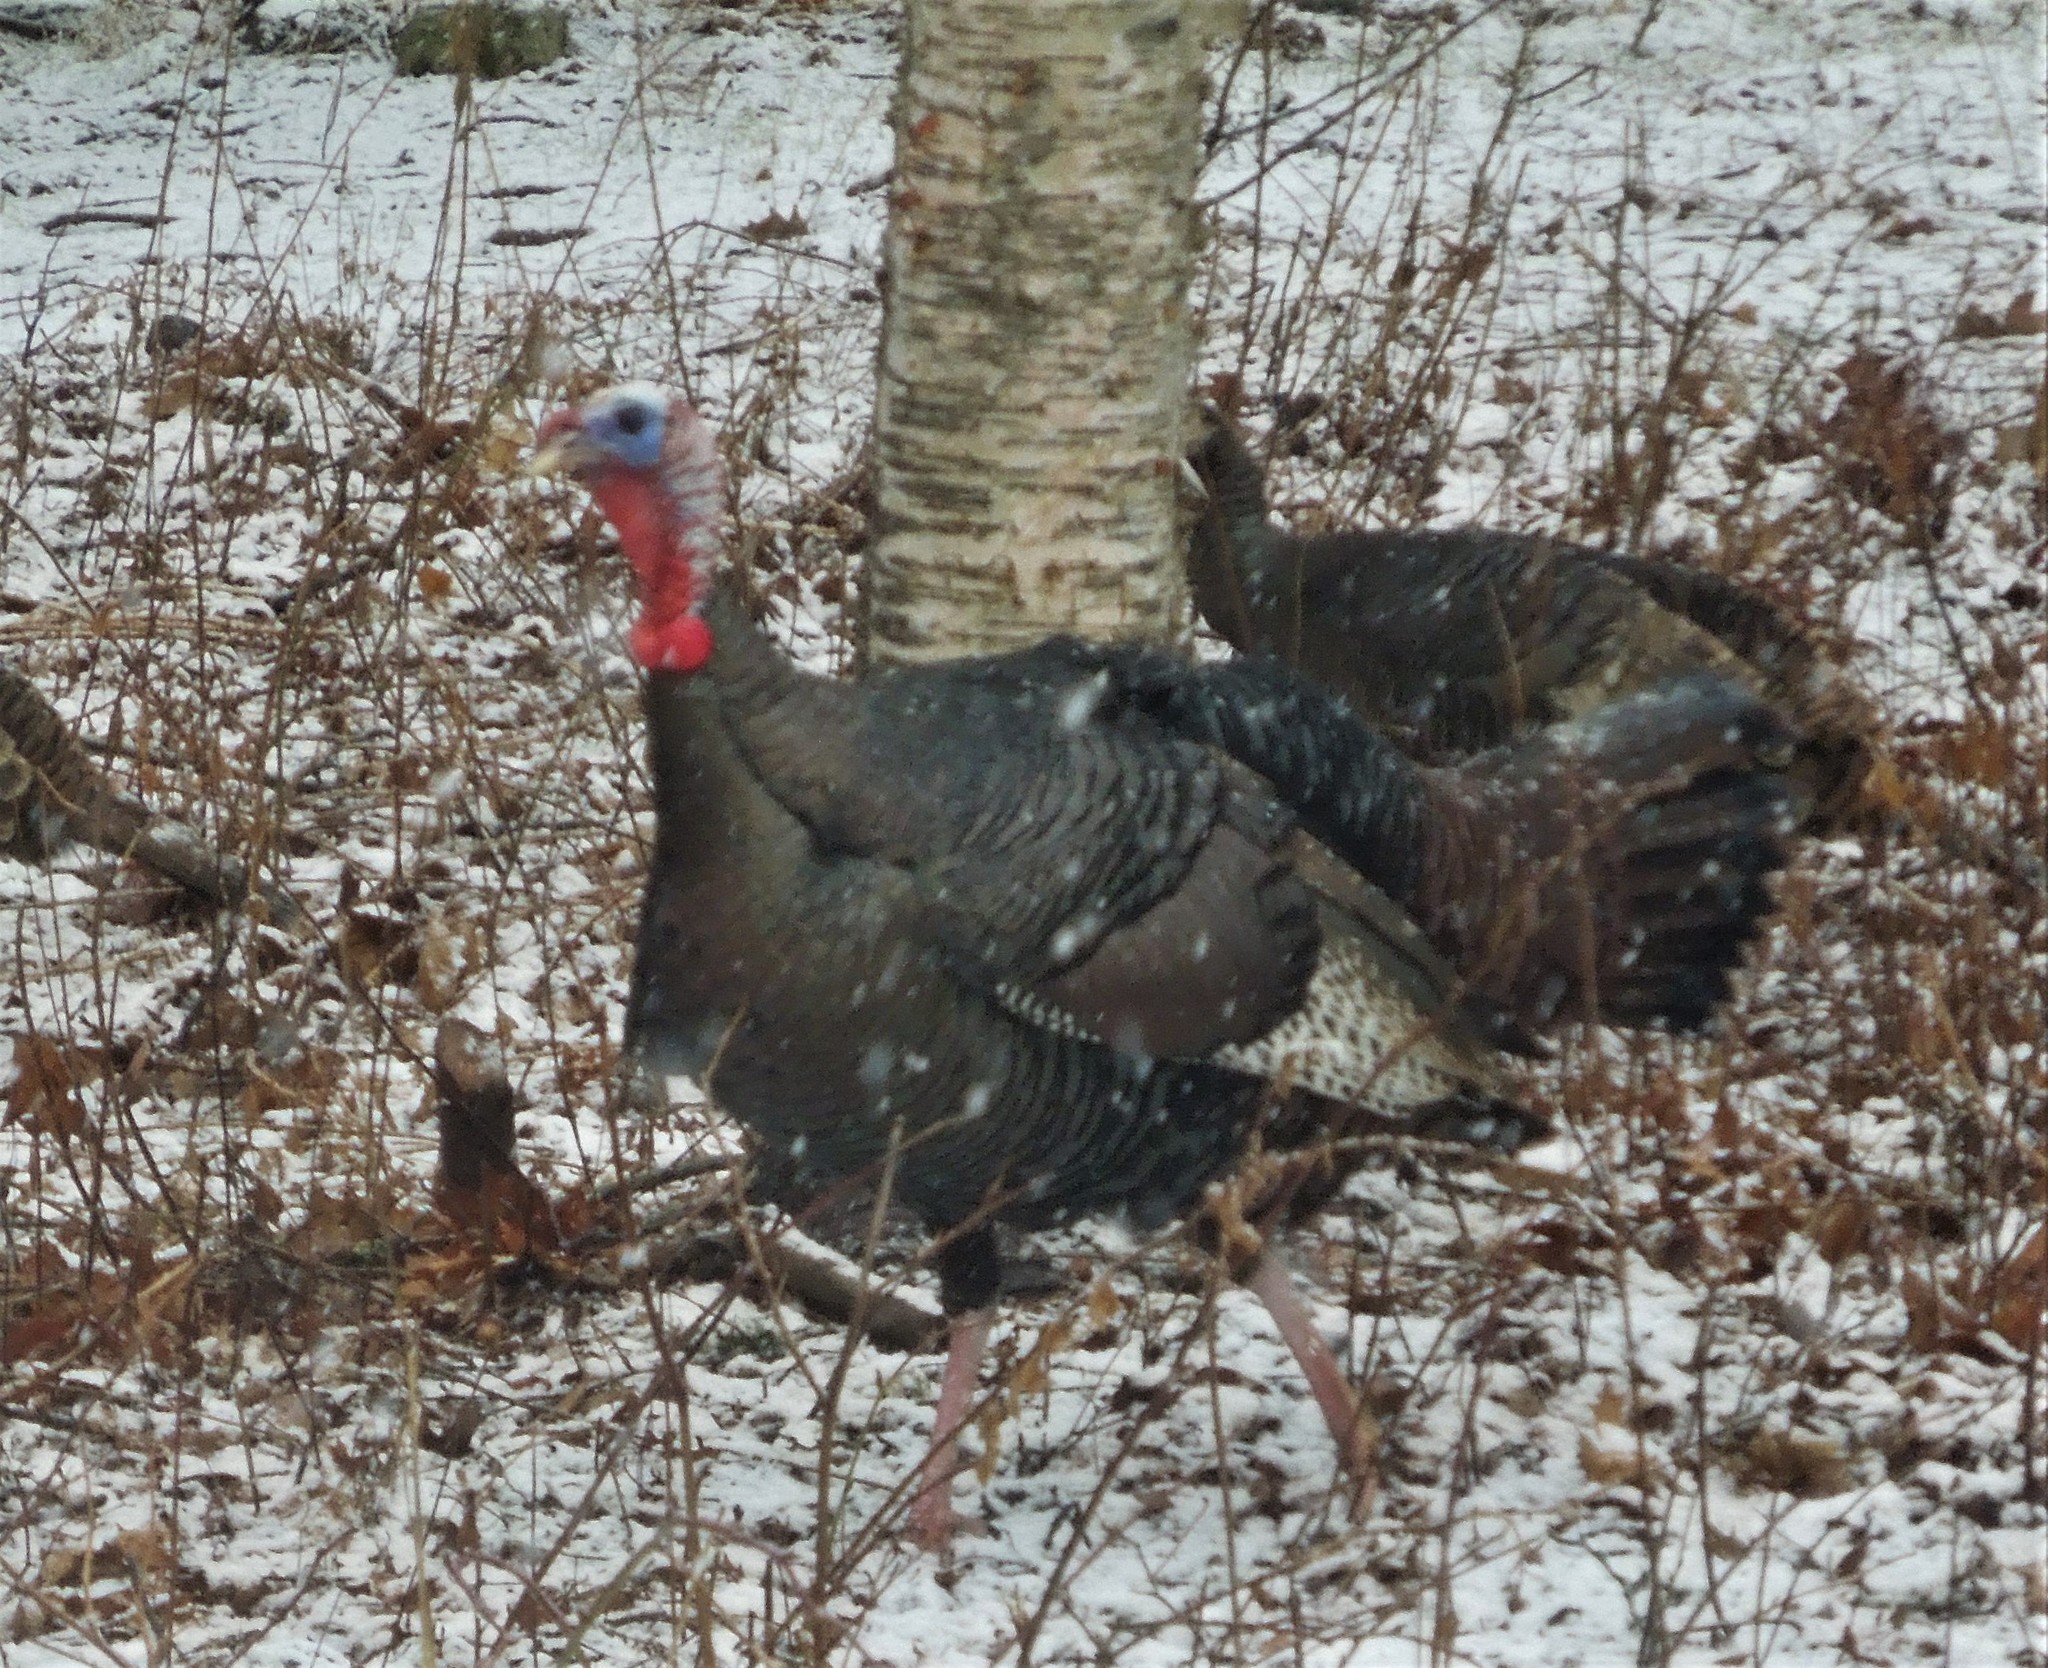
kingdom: Animalia
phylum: Chordata
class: Aves
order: Galliformes
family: Phasianidae
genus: Meleagris
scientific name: Meleagris gallopavo
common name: Wild turkey
